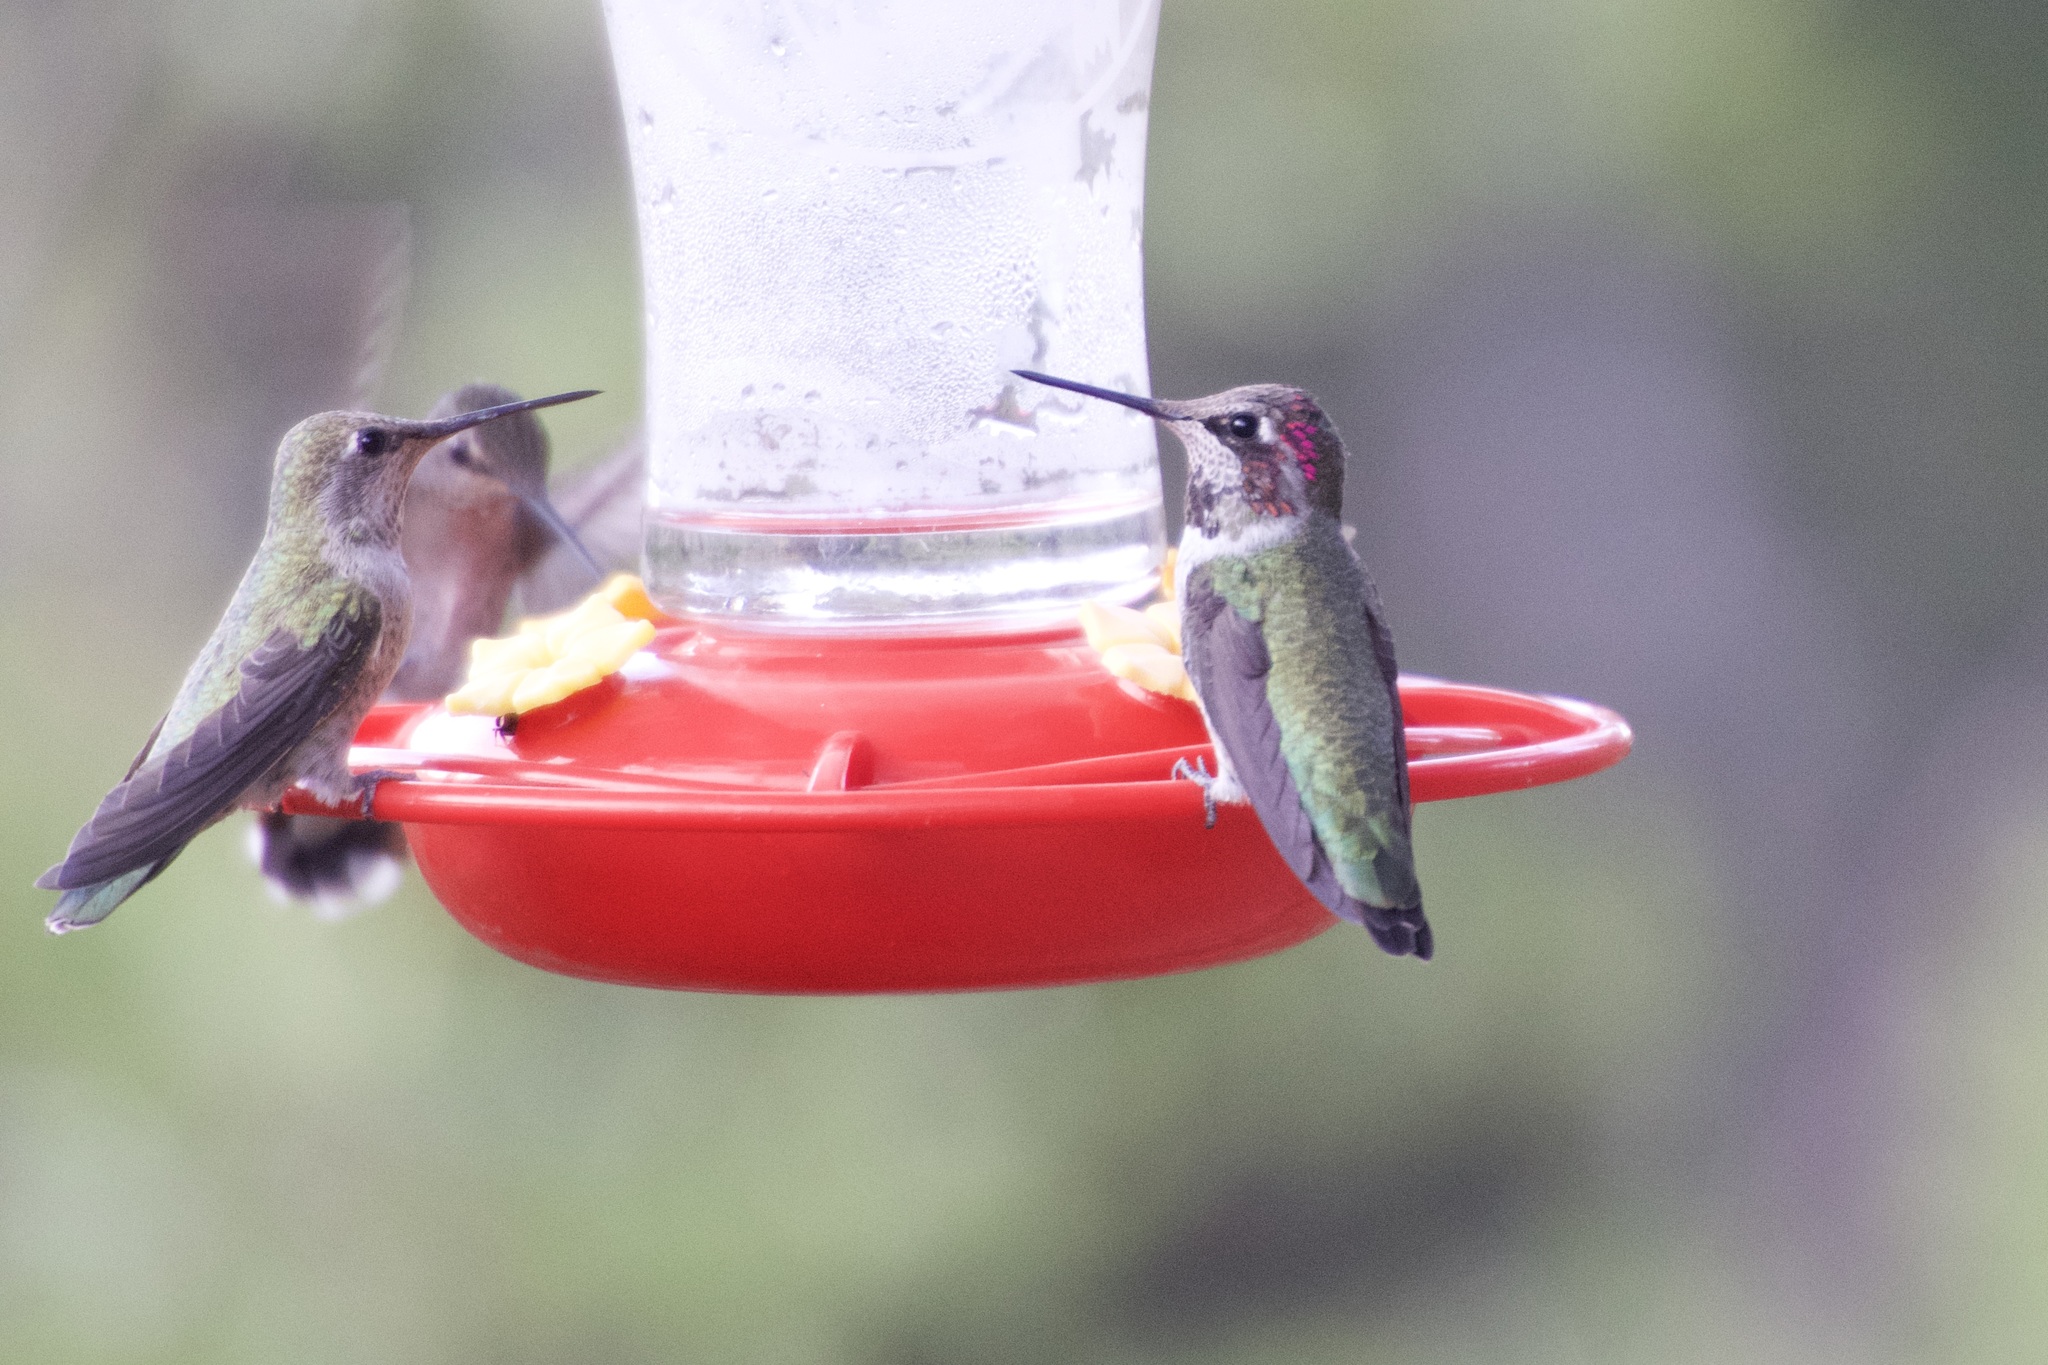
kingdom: Animalia
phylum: Chordata
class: Aves
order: Apodiformes
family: Trochilidae
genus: Calypte
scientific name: Calypte anna
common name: Anna's hummingbird
